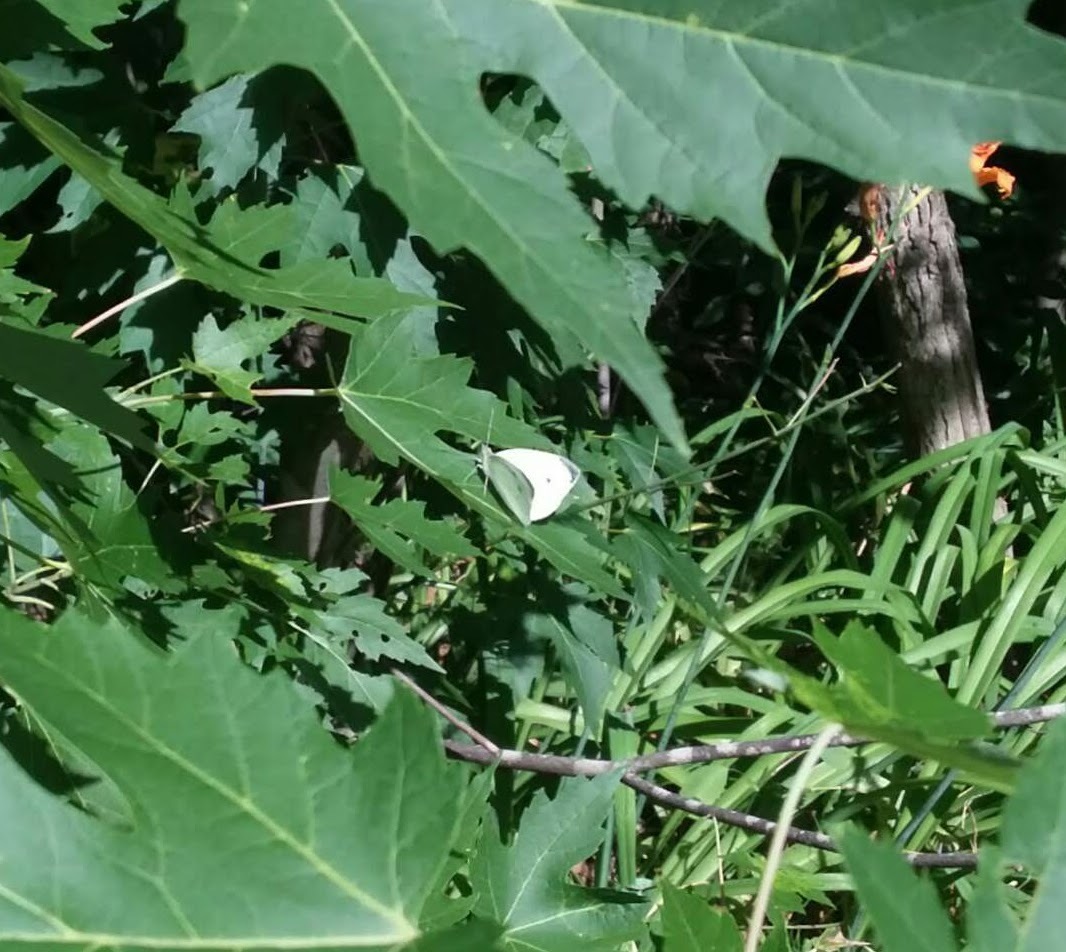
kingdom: Animalia
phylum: Arthropoda
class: Insecta
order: Lepidoptera
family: Pieridae
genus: Pieris
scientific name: Pieris rapae
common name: Small white
